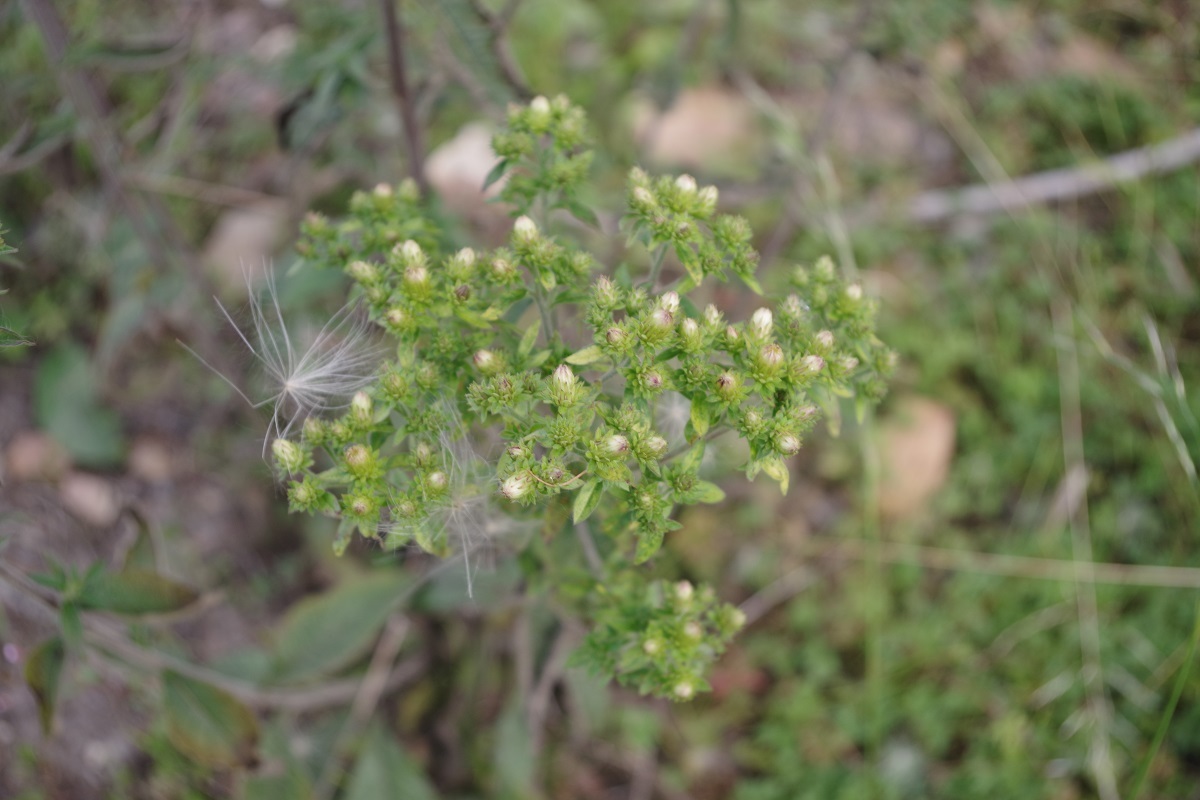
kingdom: Plantae
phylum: Tracheophyta
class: Magnoliopsida
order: Asterales
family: Asteraceae
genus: Pentanema
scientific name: Pentanema squarrosum
